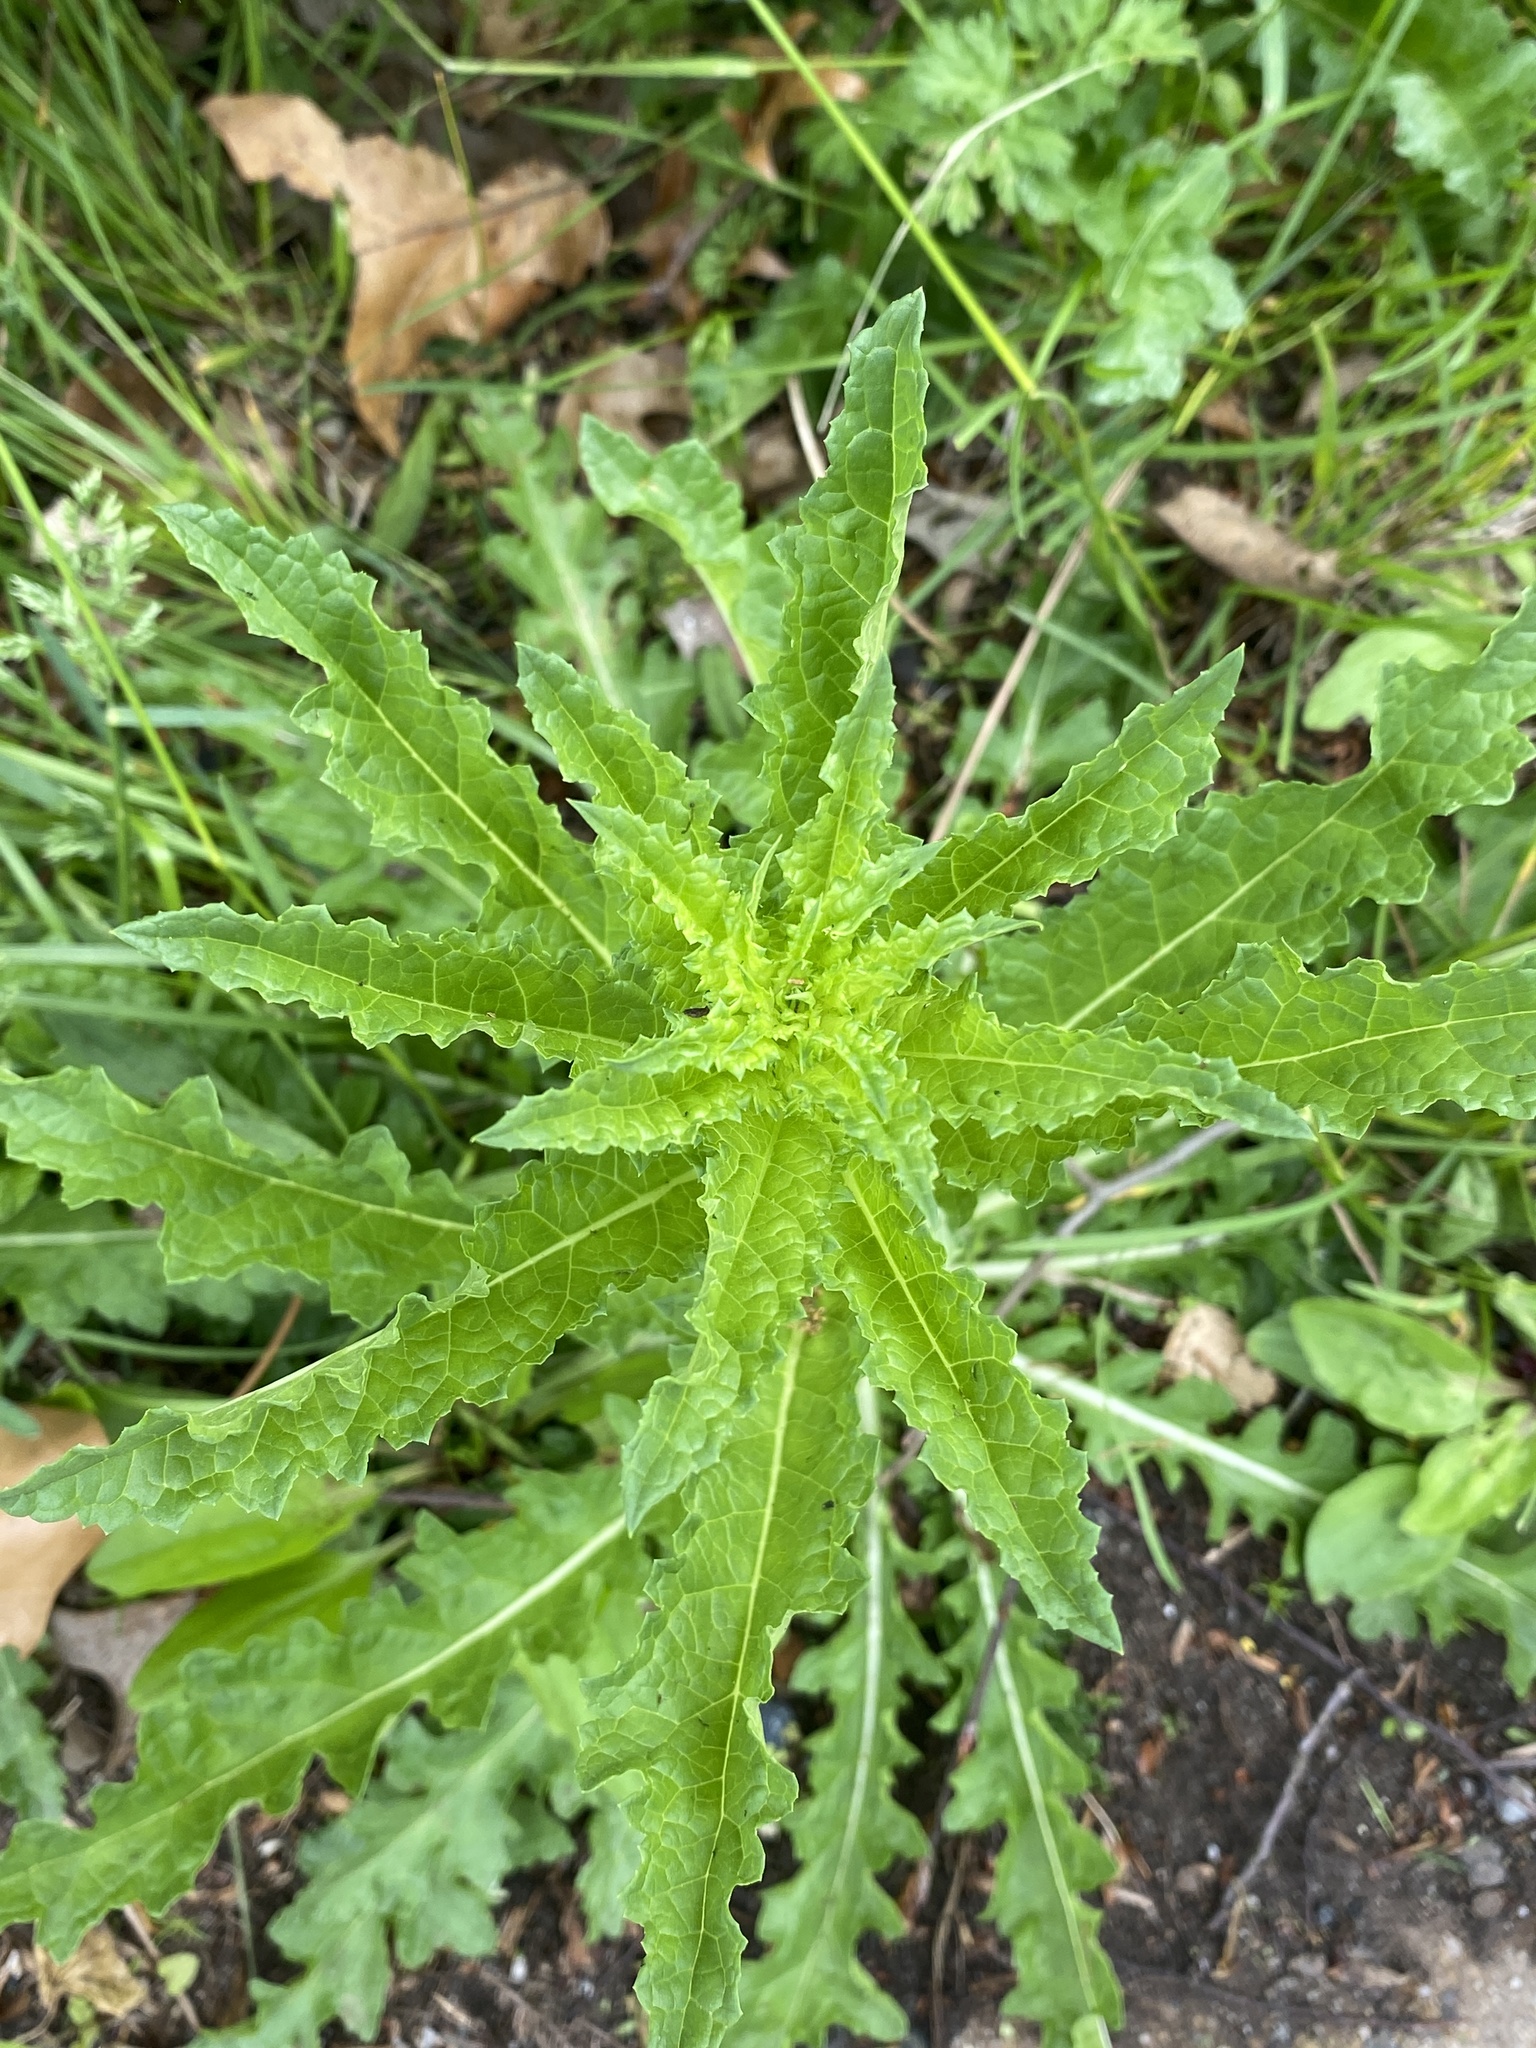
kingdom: Plantae
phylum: Tracheophyta
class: Magnoliopsida
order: Lamiales
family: Scrophulariaceae
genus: Verbascum
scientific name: Verbascum blattaria
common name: Moth mullein
